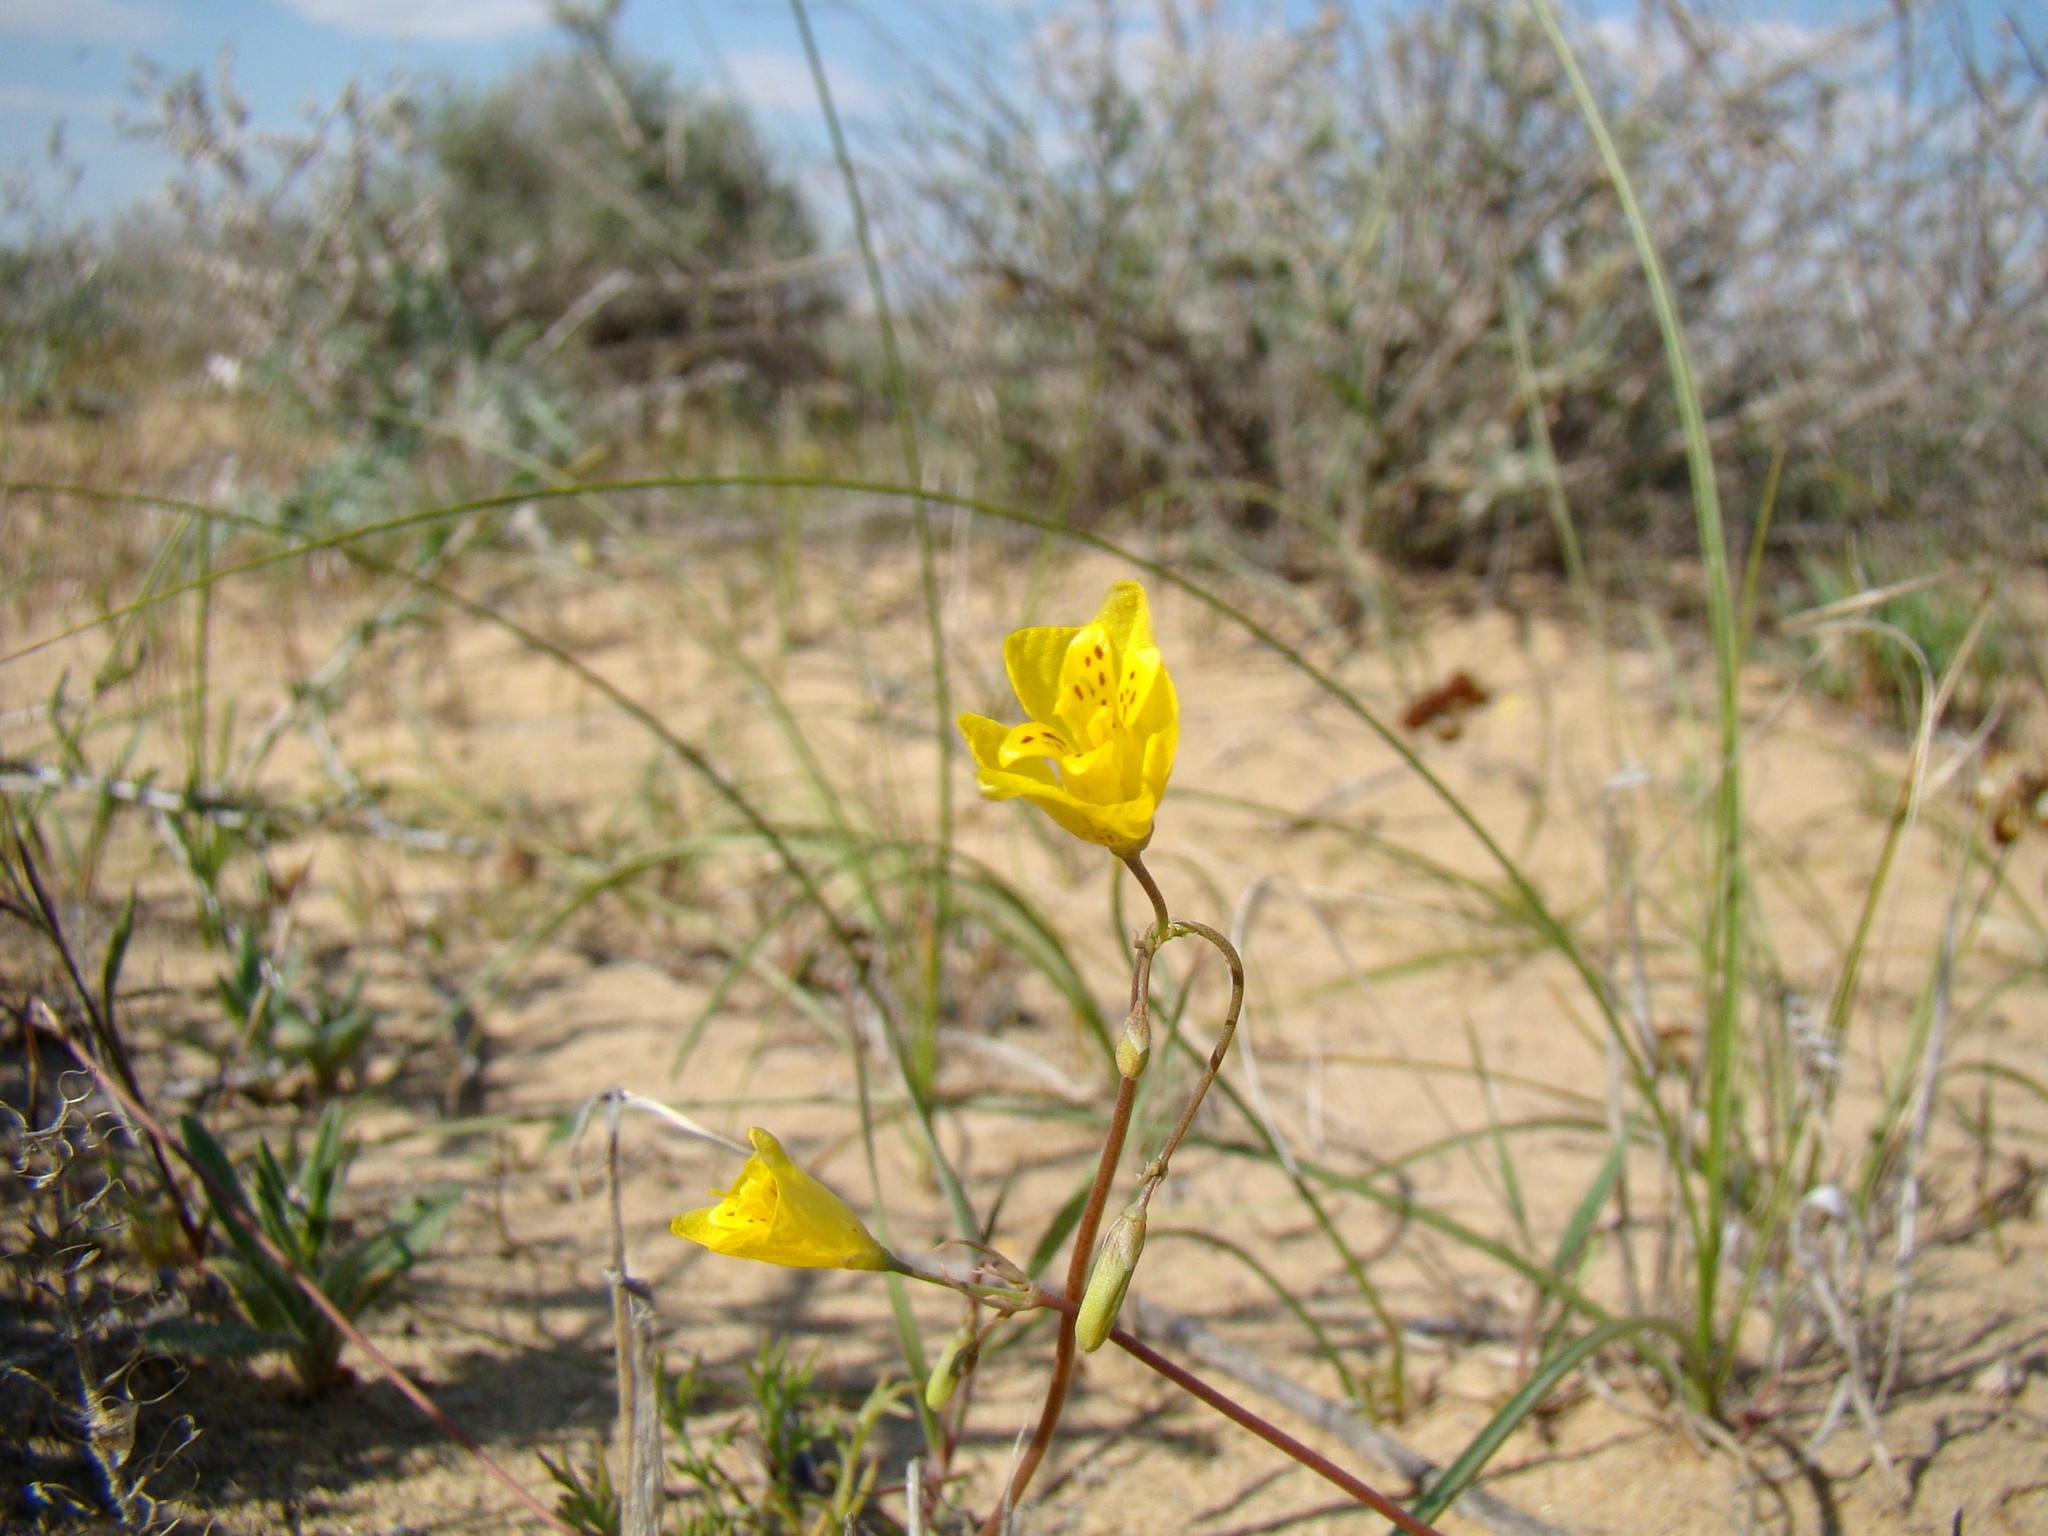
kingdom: Plantae
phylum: Tracheophyta
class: Magnoliopsida
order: Ranunculales
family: Papaveraceae
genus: Hypecoum
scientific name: Hypecoum pendulum
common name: Nodding hypecoum
